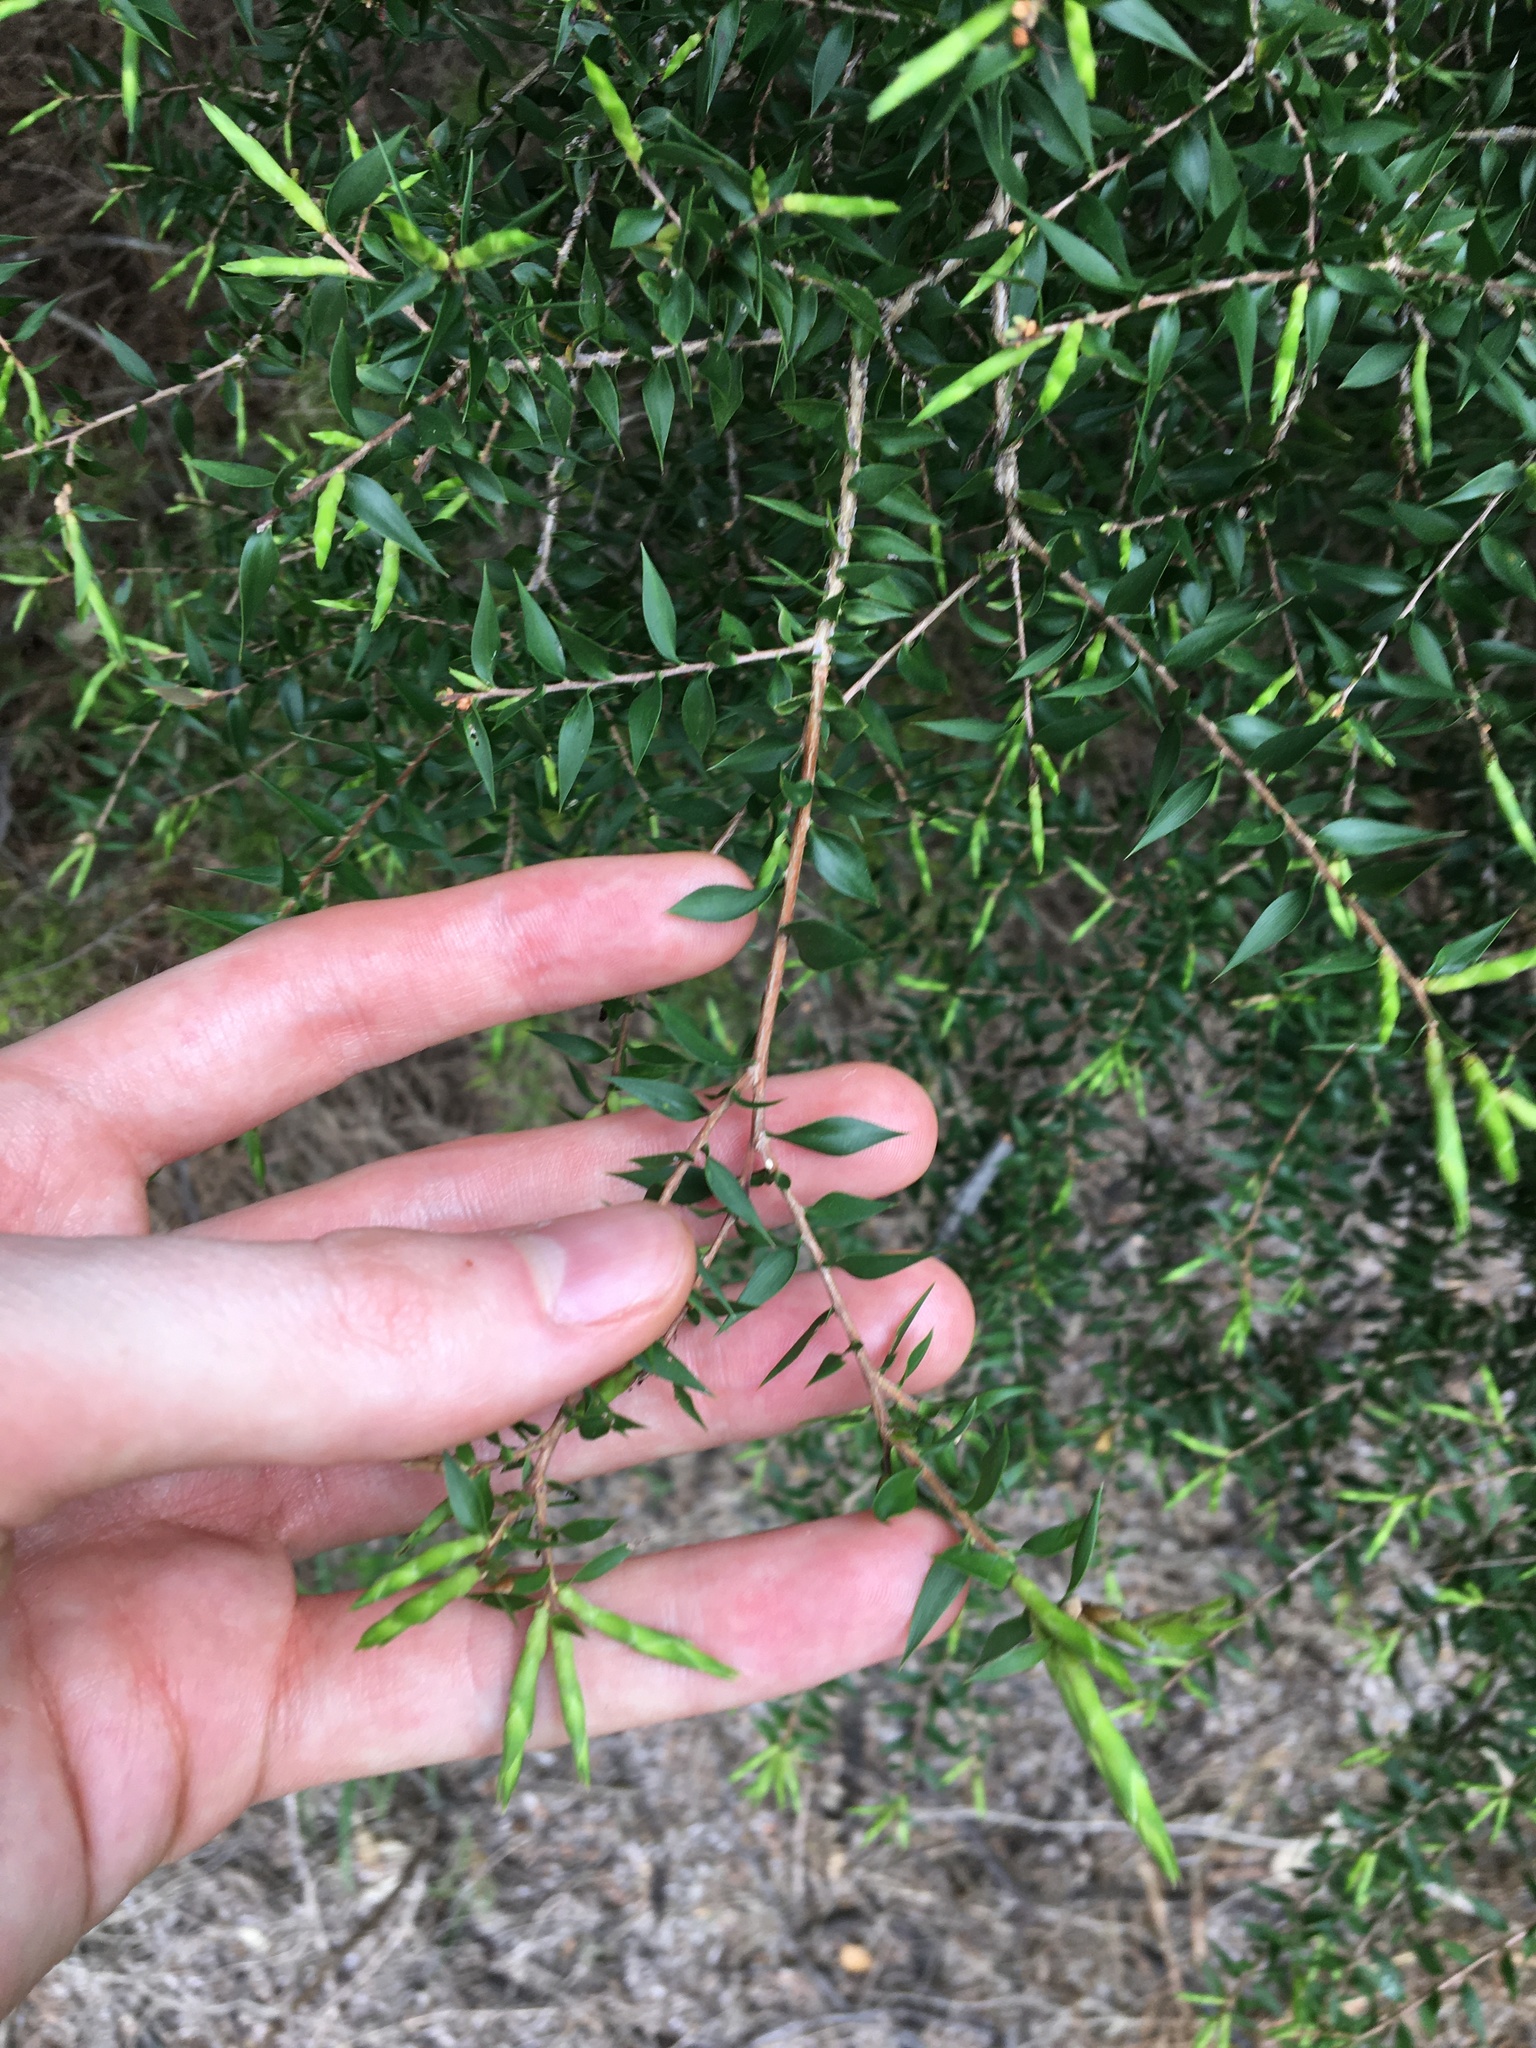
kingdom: Plantae
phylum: Tracheophyta
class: Magnoliopsida
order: Myrtales
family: Myrtaceae
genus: Melaleuca
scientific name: Melaleuca styphelioides
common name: Prickly paperbark
